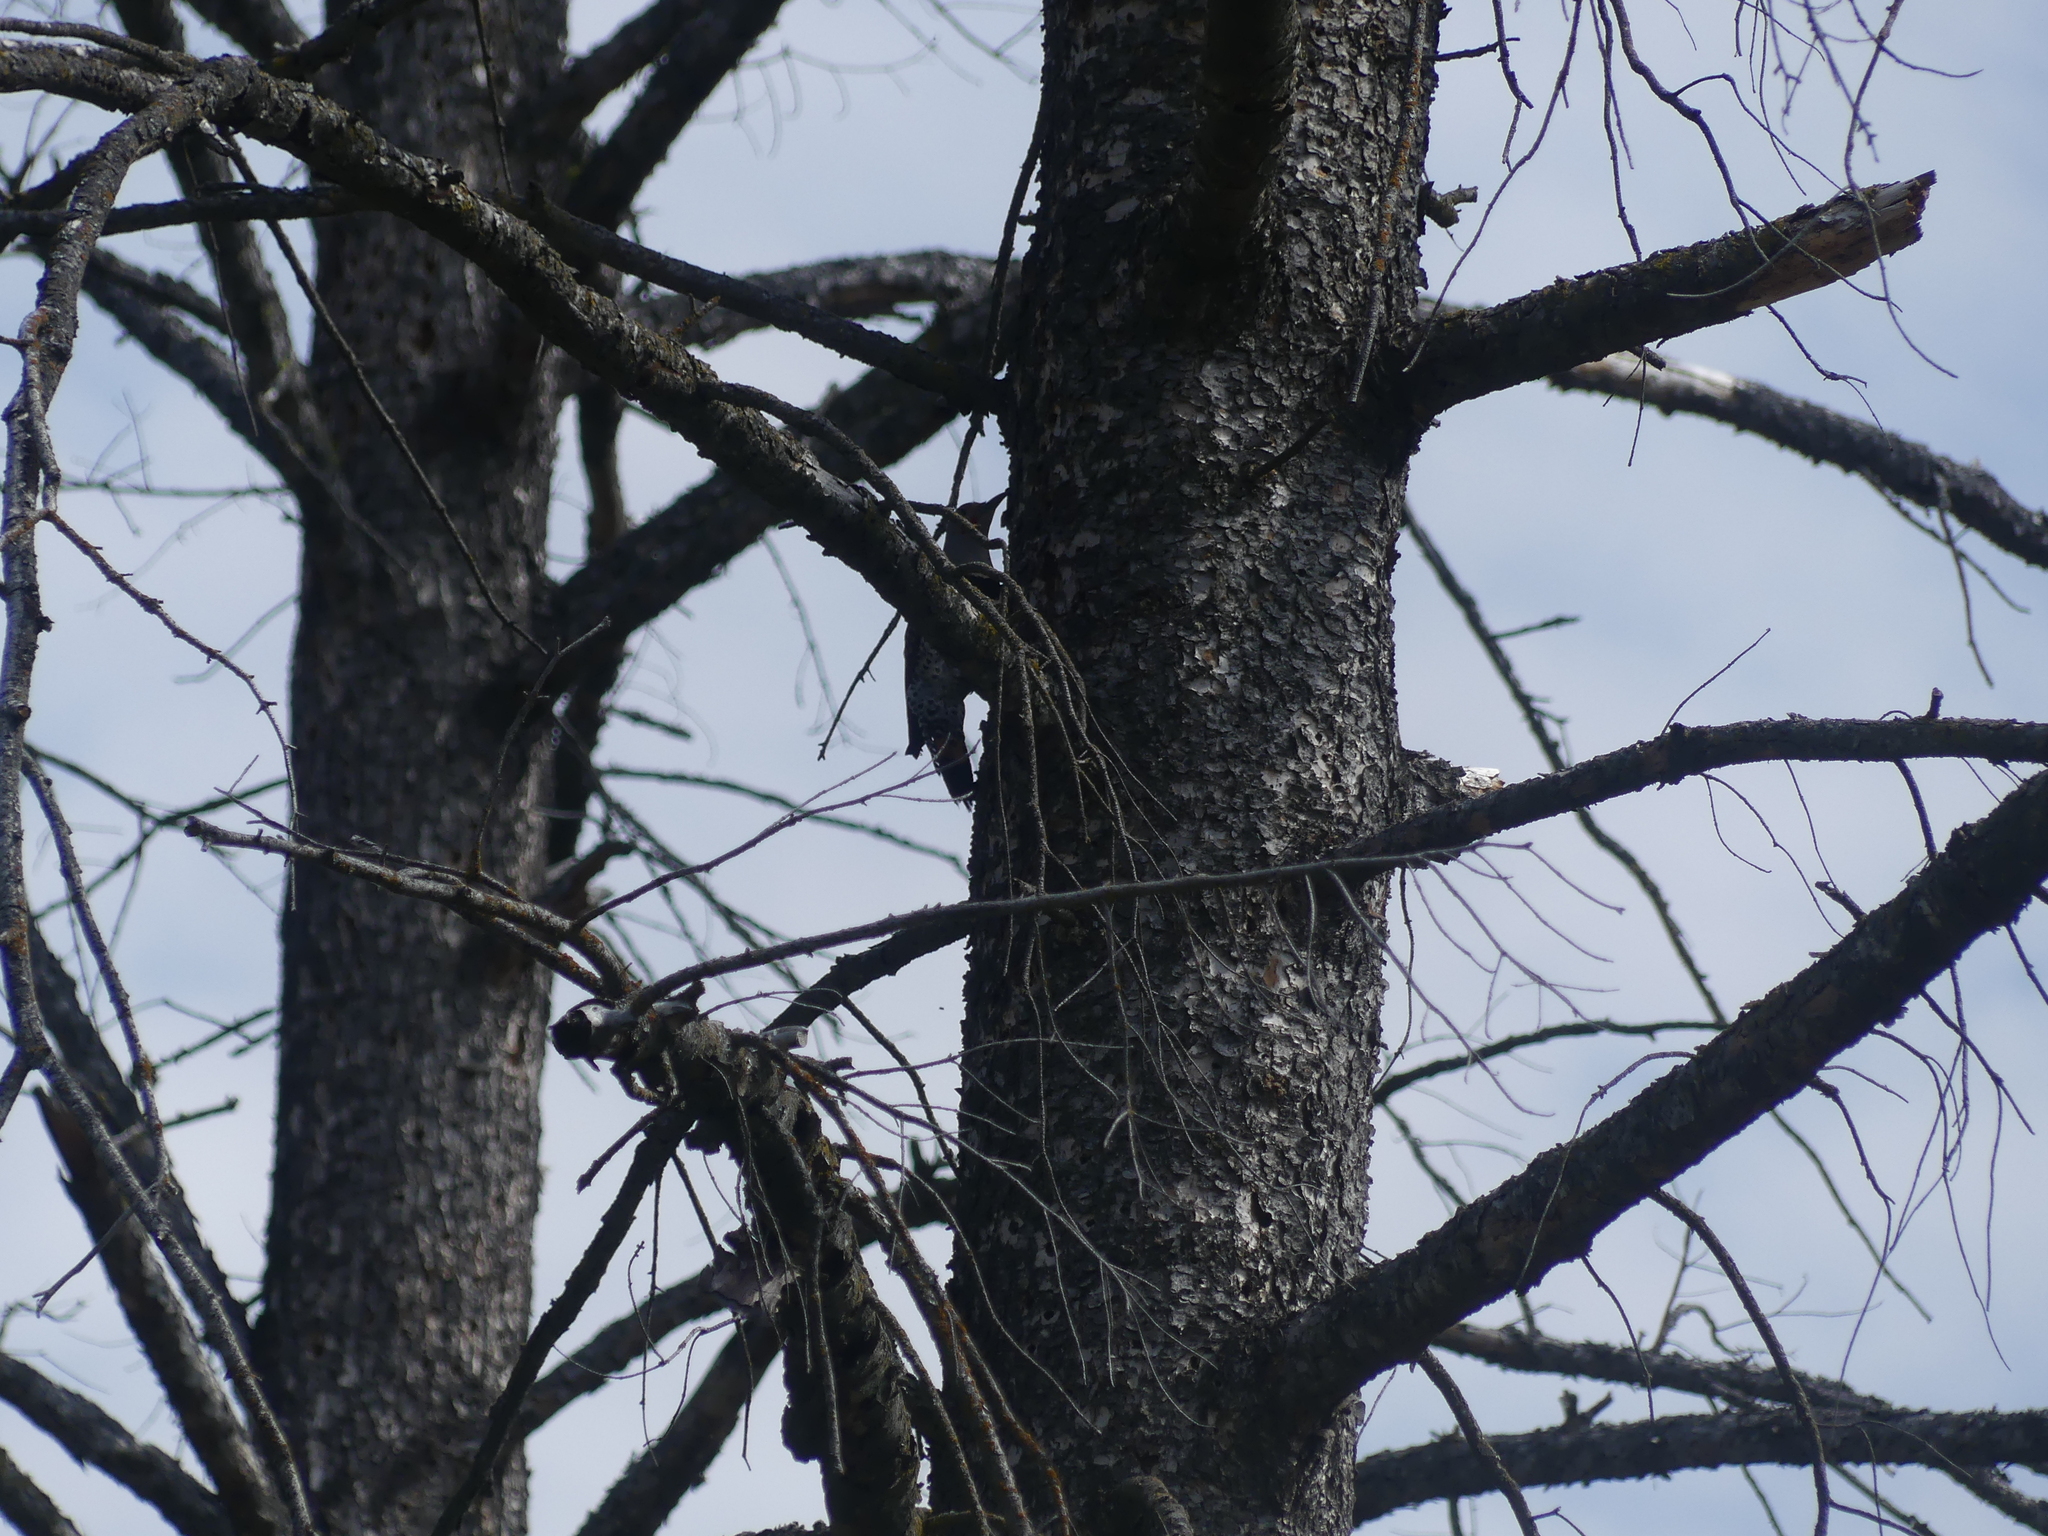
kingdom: Animalia
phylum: Chordata
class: Aves
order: Piciformes
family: Picidae
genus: Colaptes
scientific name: Colaptes auratus
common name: Northern flicker
